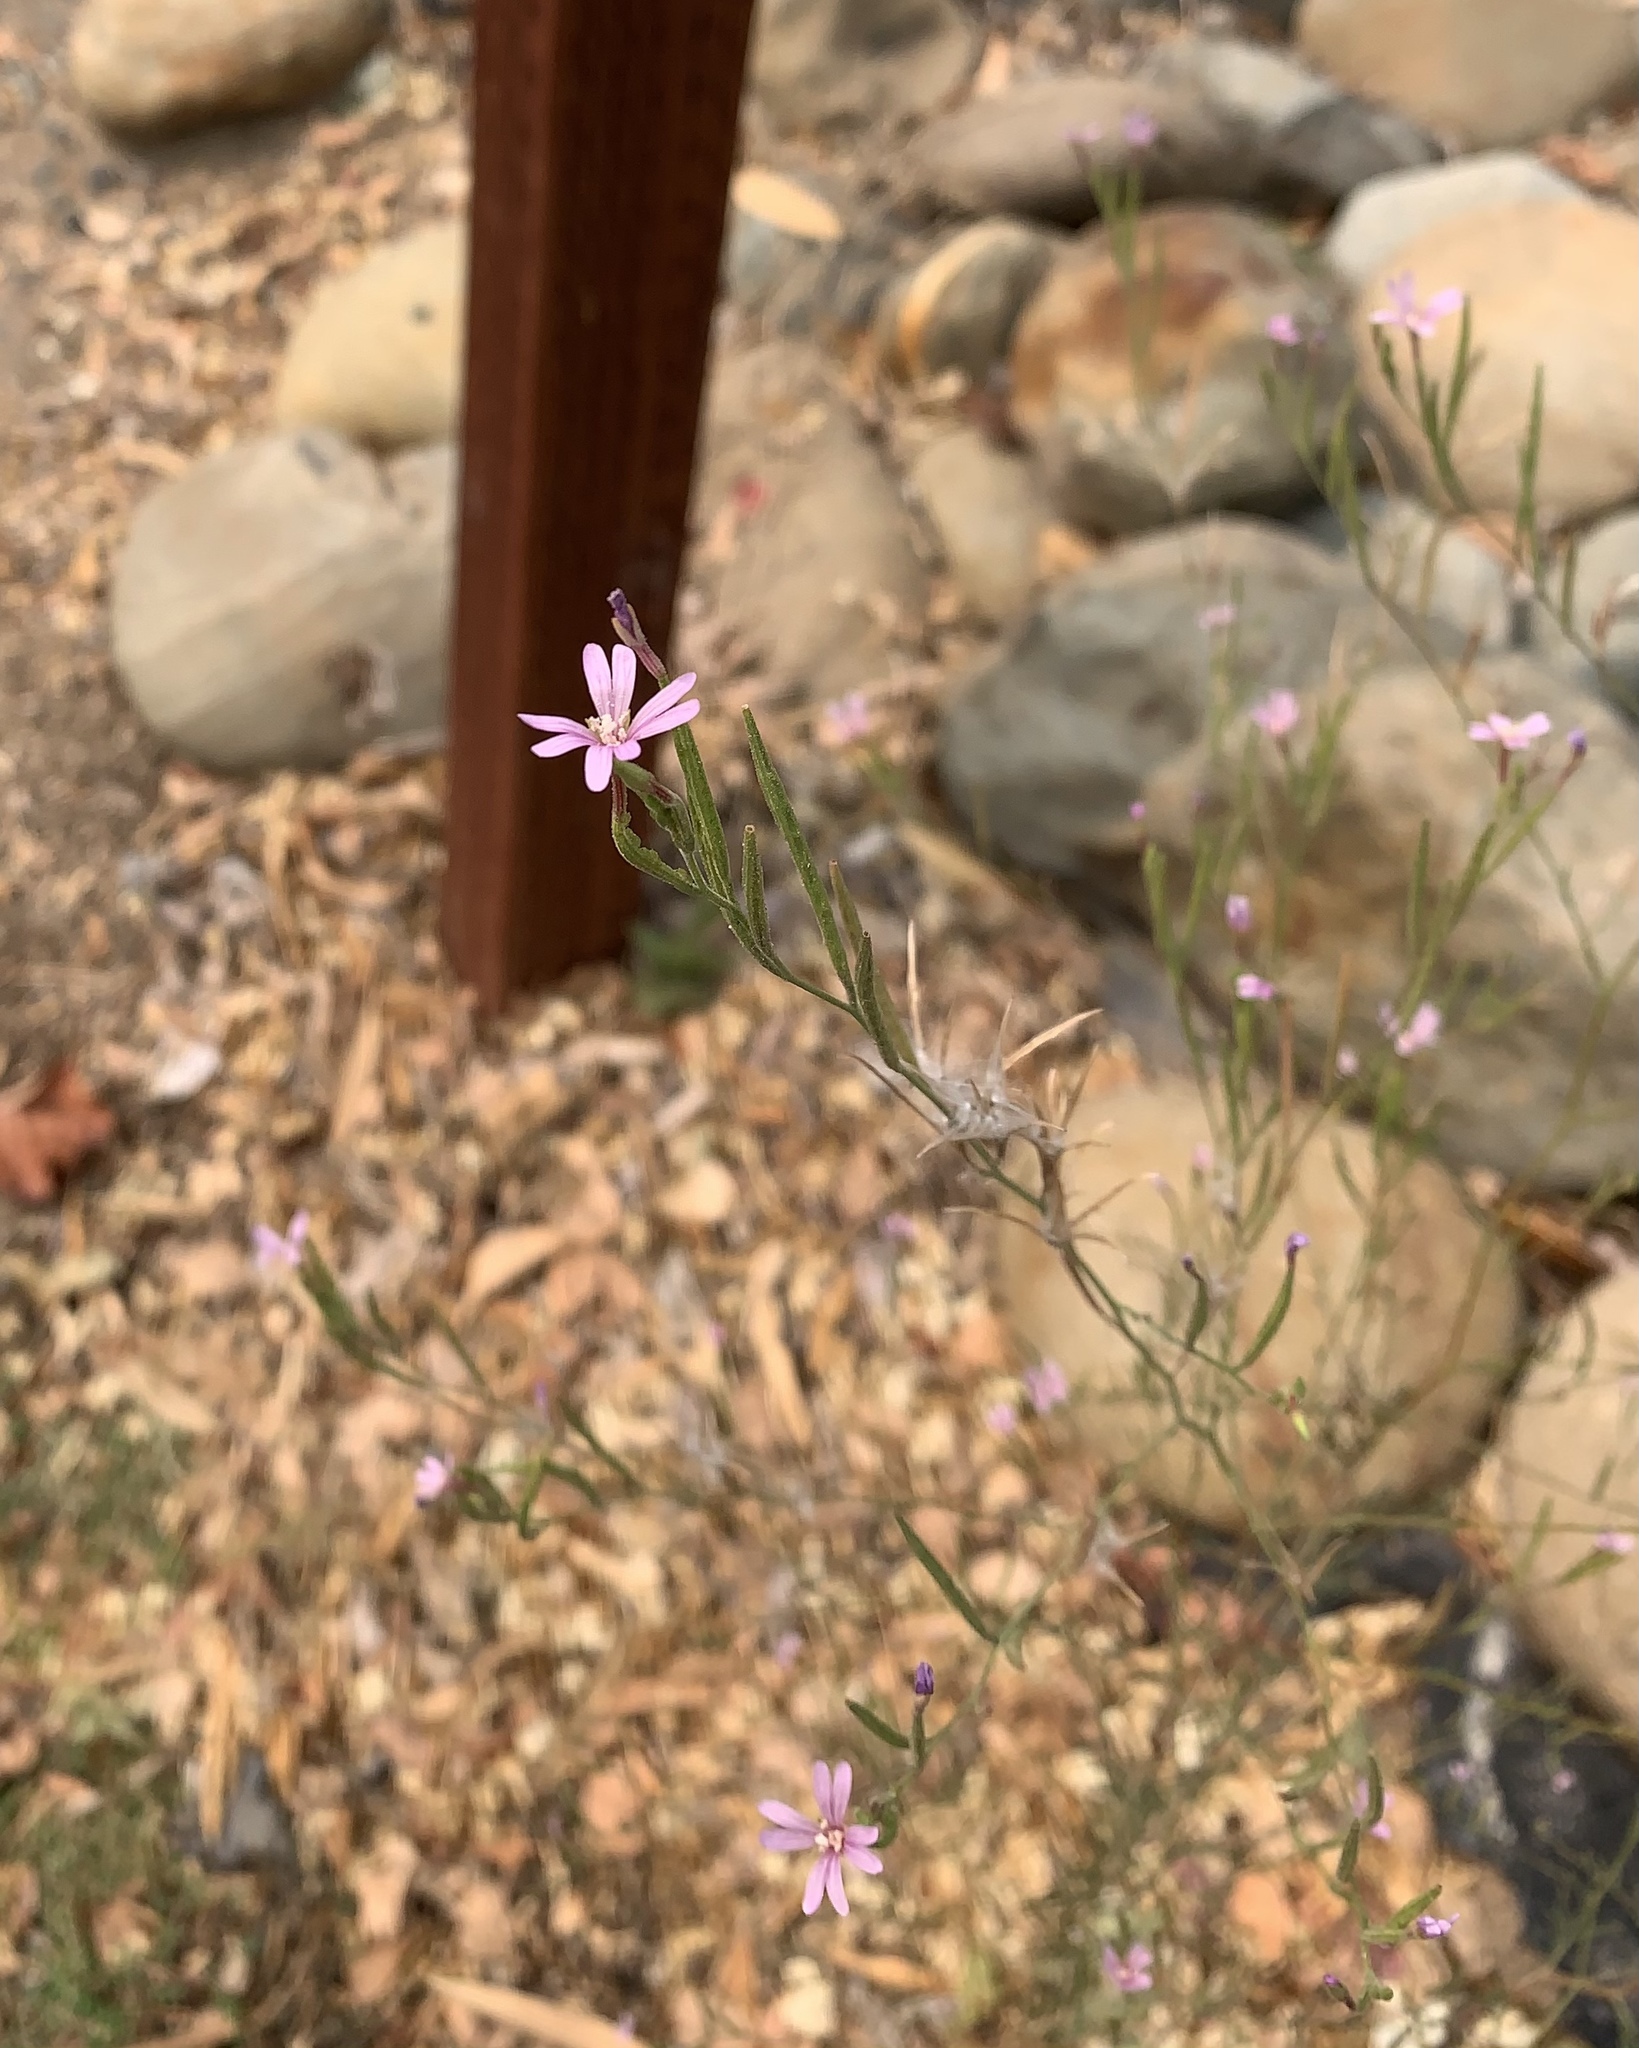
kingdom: Plantae
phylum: Tracheophyta
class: Magnoliopsida
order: Myrtales
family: Onagraceae
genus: Epilobium
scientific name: Epilobium brachycarpum
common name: Annual willowherb
